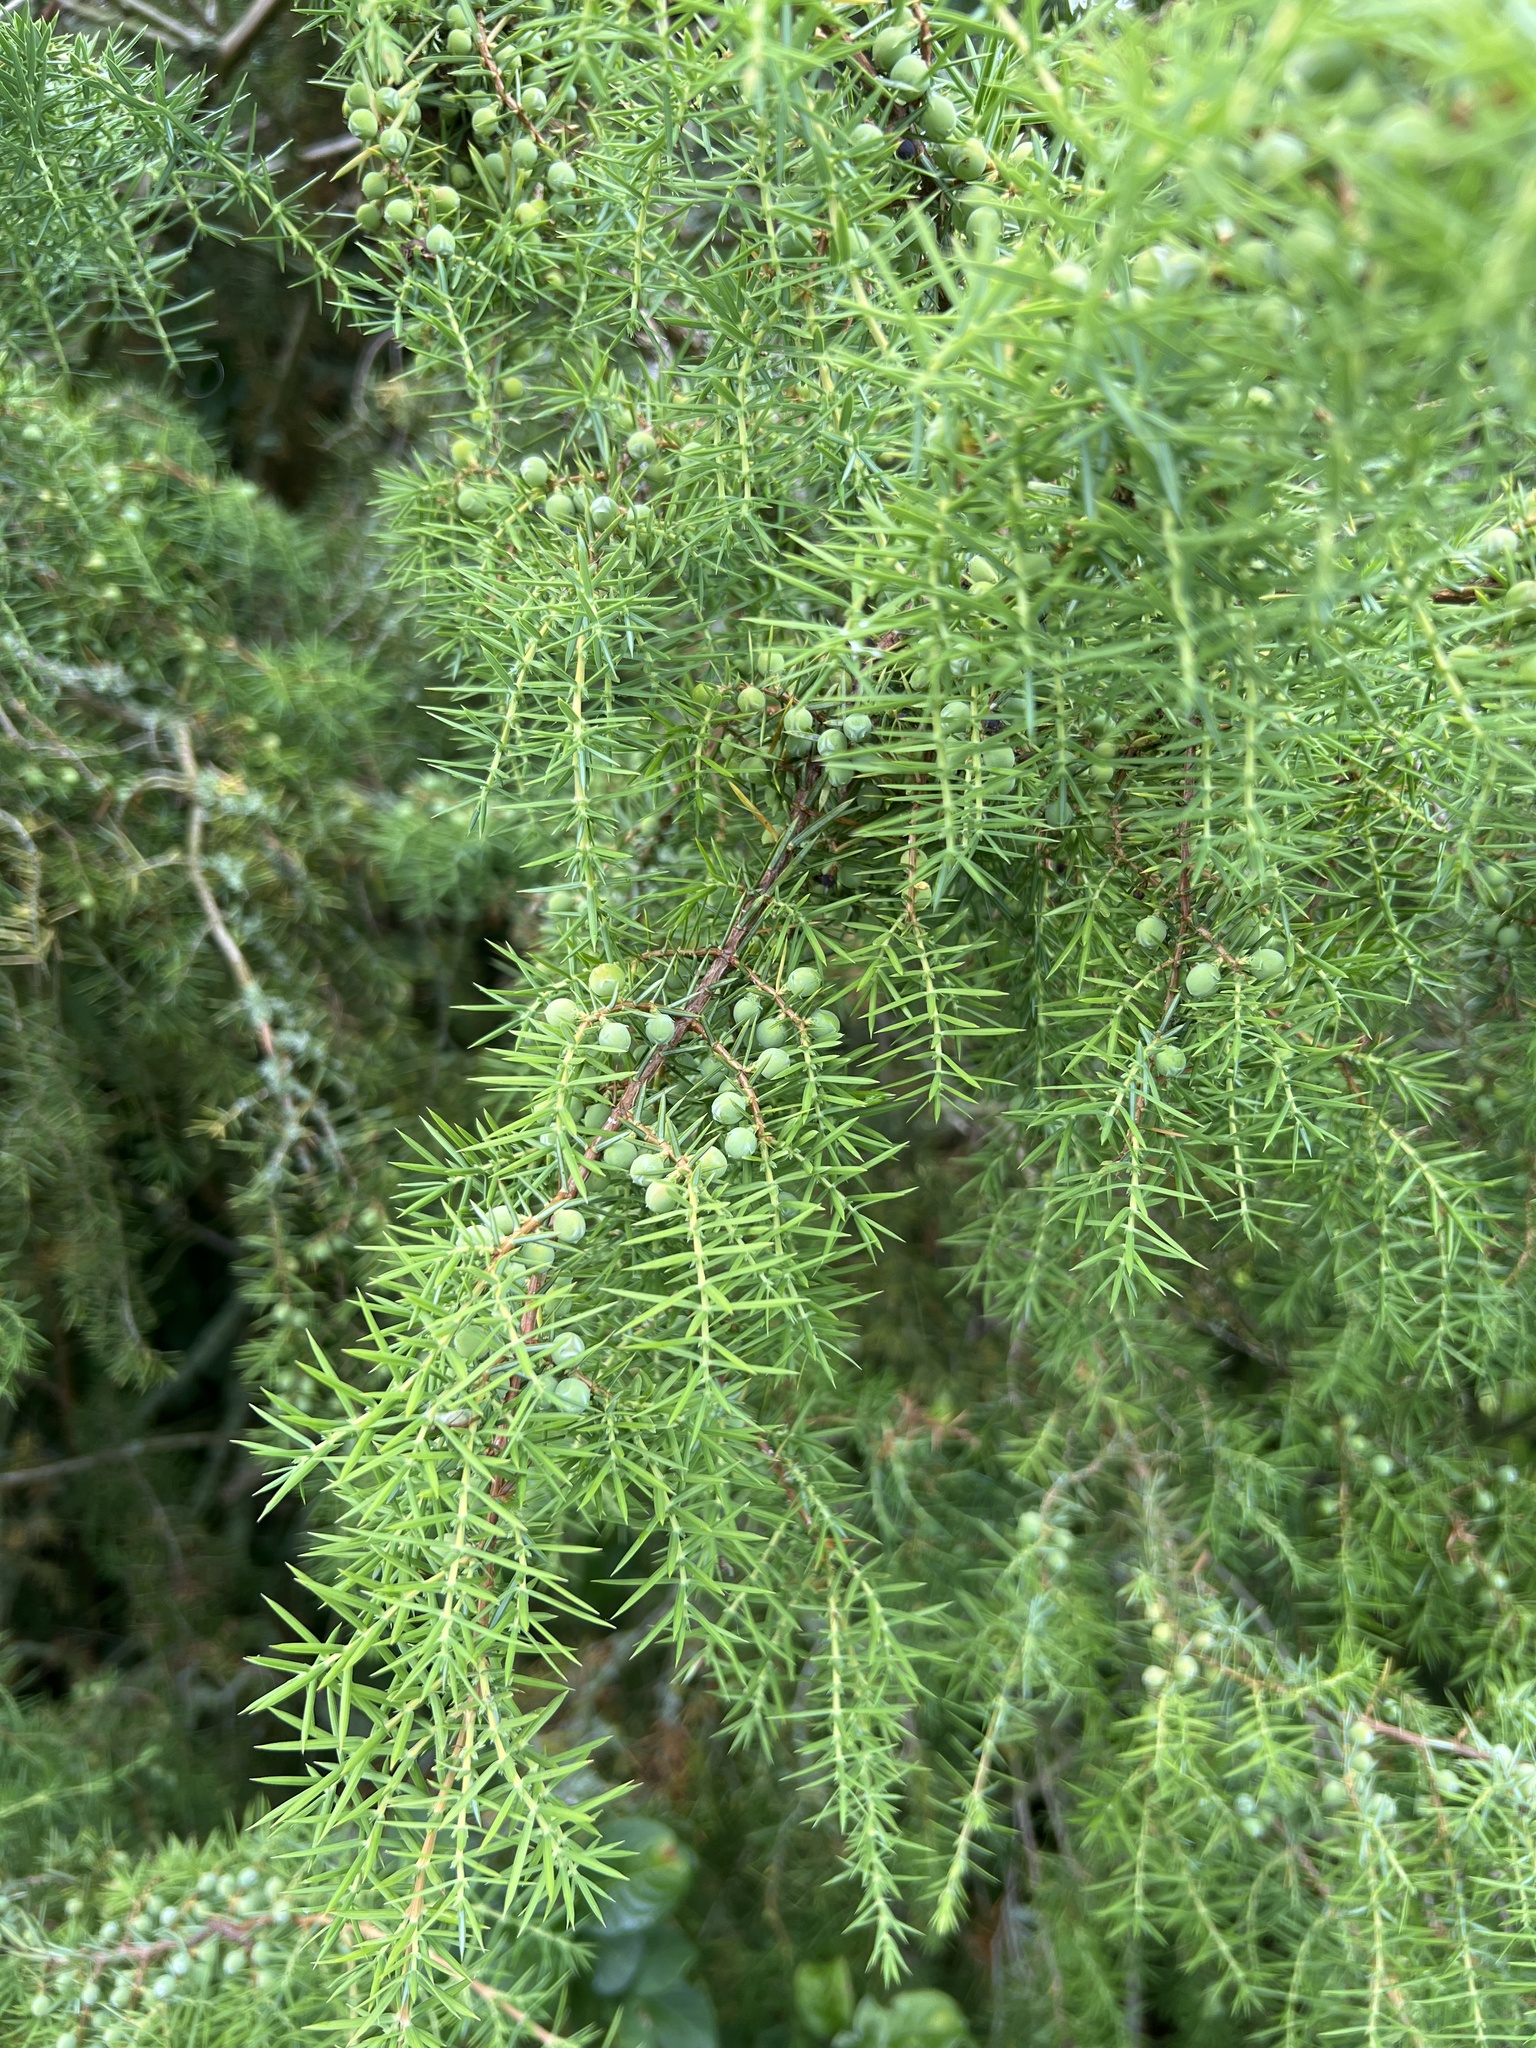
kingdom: Plantae
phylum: Tracheophyta
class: Pinopsida
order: Pinales
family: Cupressaceae
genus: Juniperus
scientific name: Juniperus communis
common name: Common juniper
